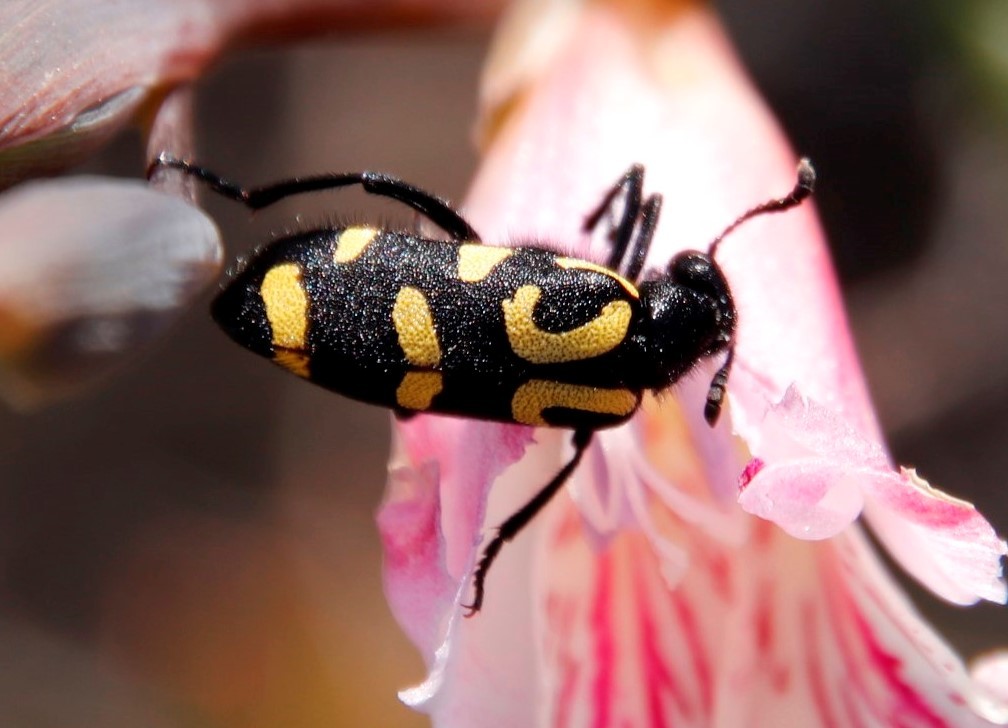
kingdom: Animalia
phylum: Arthropoda
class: Insecta
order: Coleoptera
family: Meloidae
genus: Ceroctis
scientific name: Ceroctis capensis
